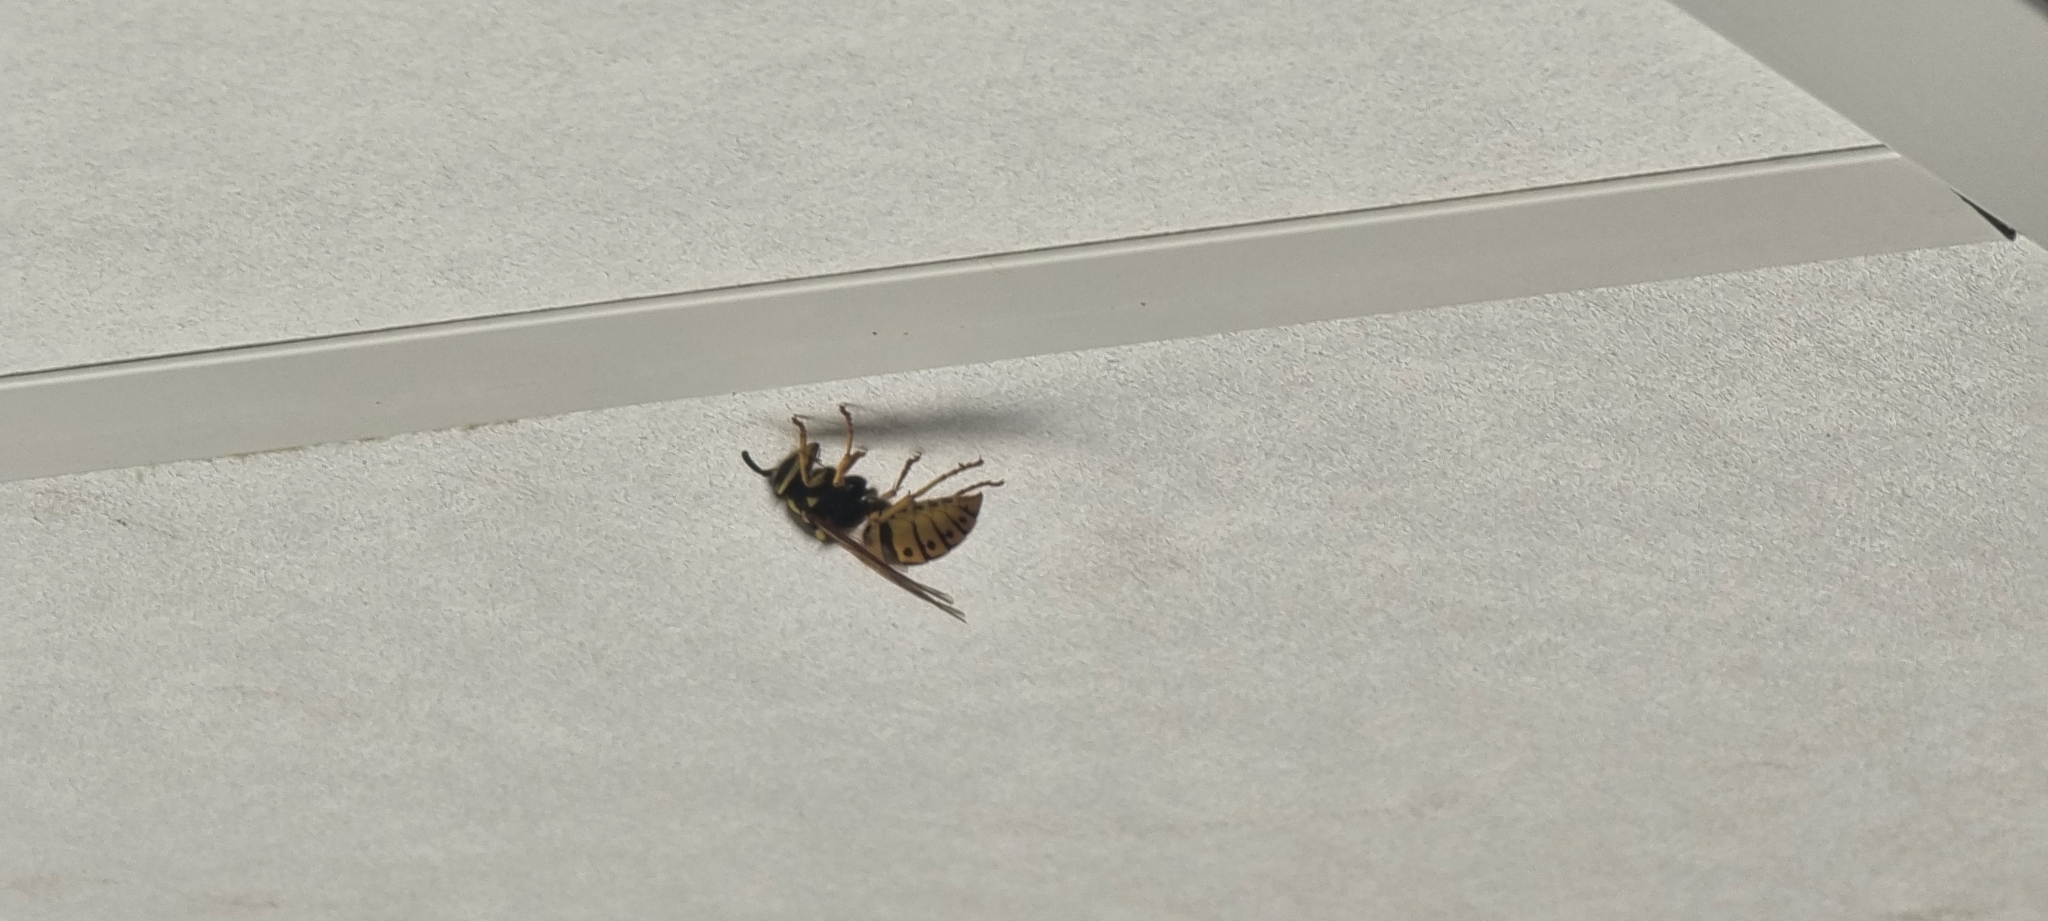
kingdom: Animalia
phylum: Arthropoda
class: Insecta
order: Hymenoptera
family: Vespidae
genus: Vespula
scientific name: Vespula germanica
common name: German wasp
